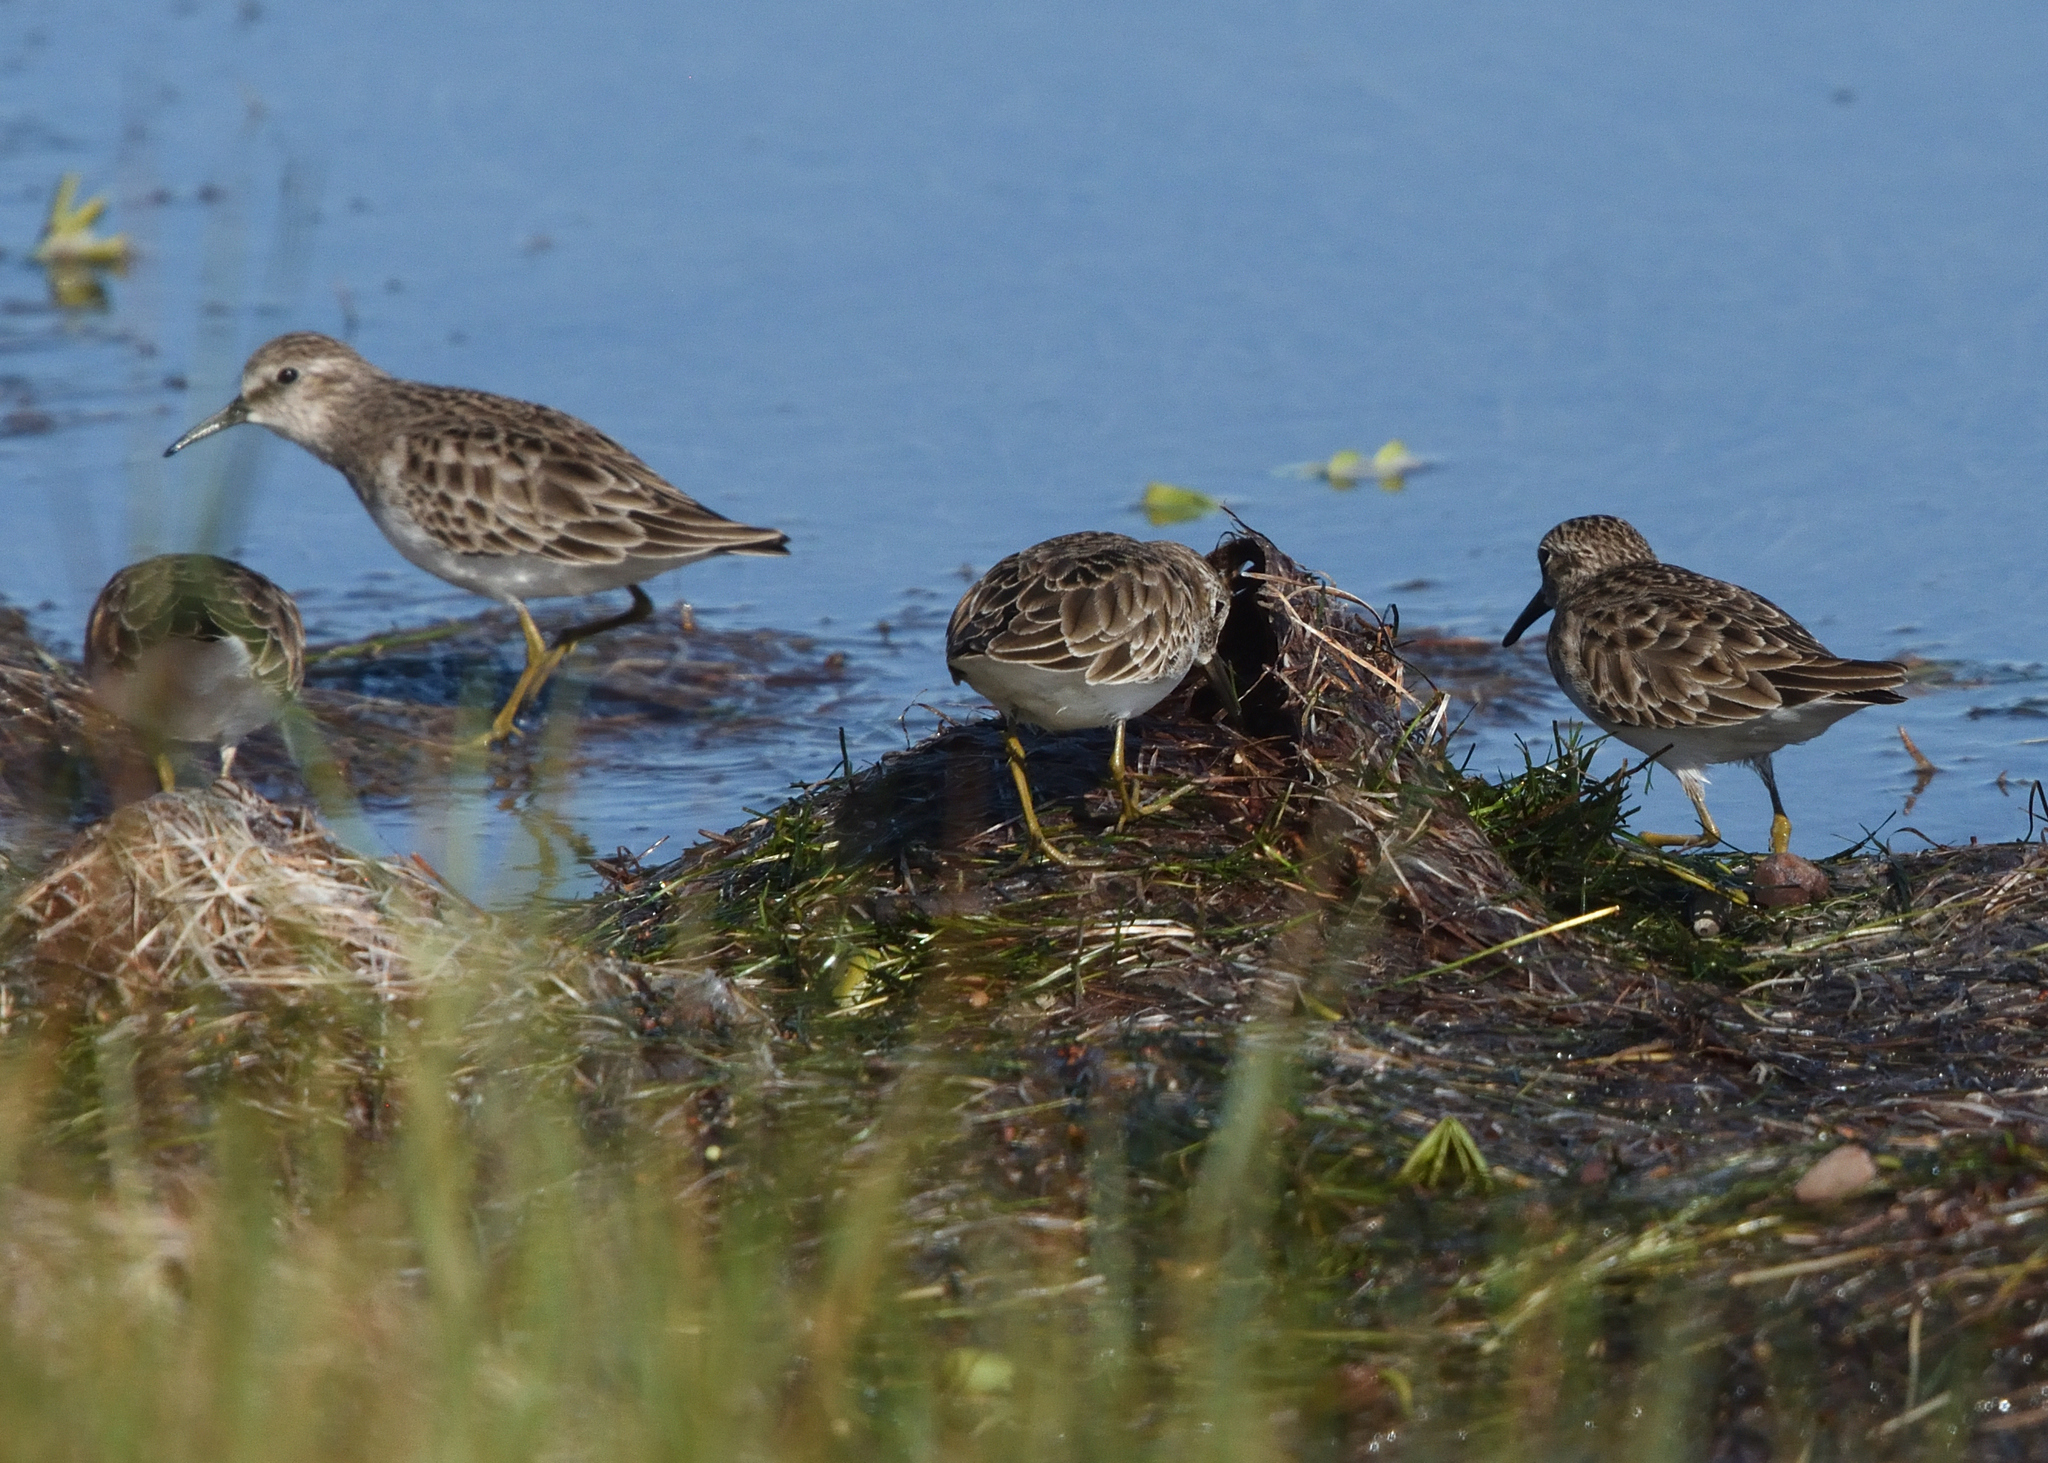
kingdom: Animalia
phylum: Chordata
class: Aves
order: Charadriiformes
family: Scolopacidae
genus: Calidris
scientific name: Calidris minutilla
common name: Least sandpiper
